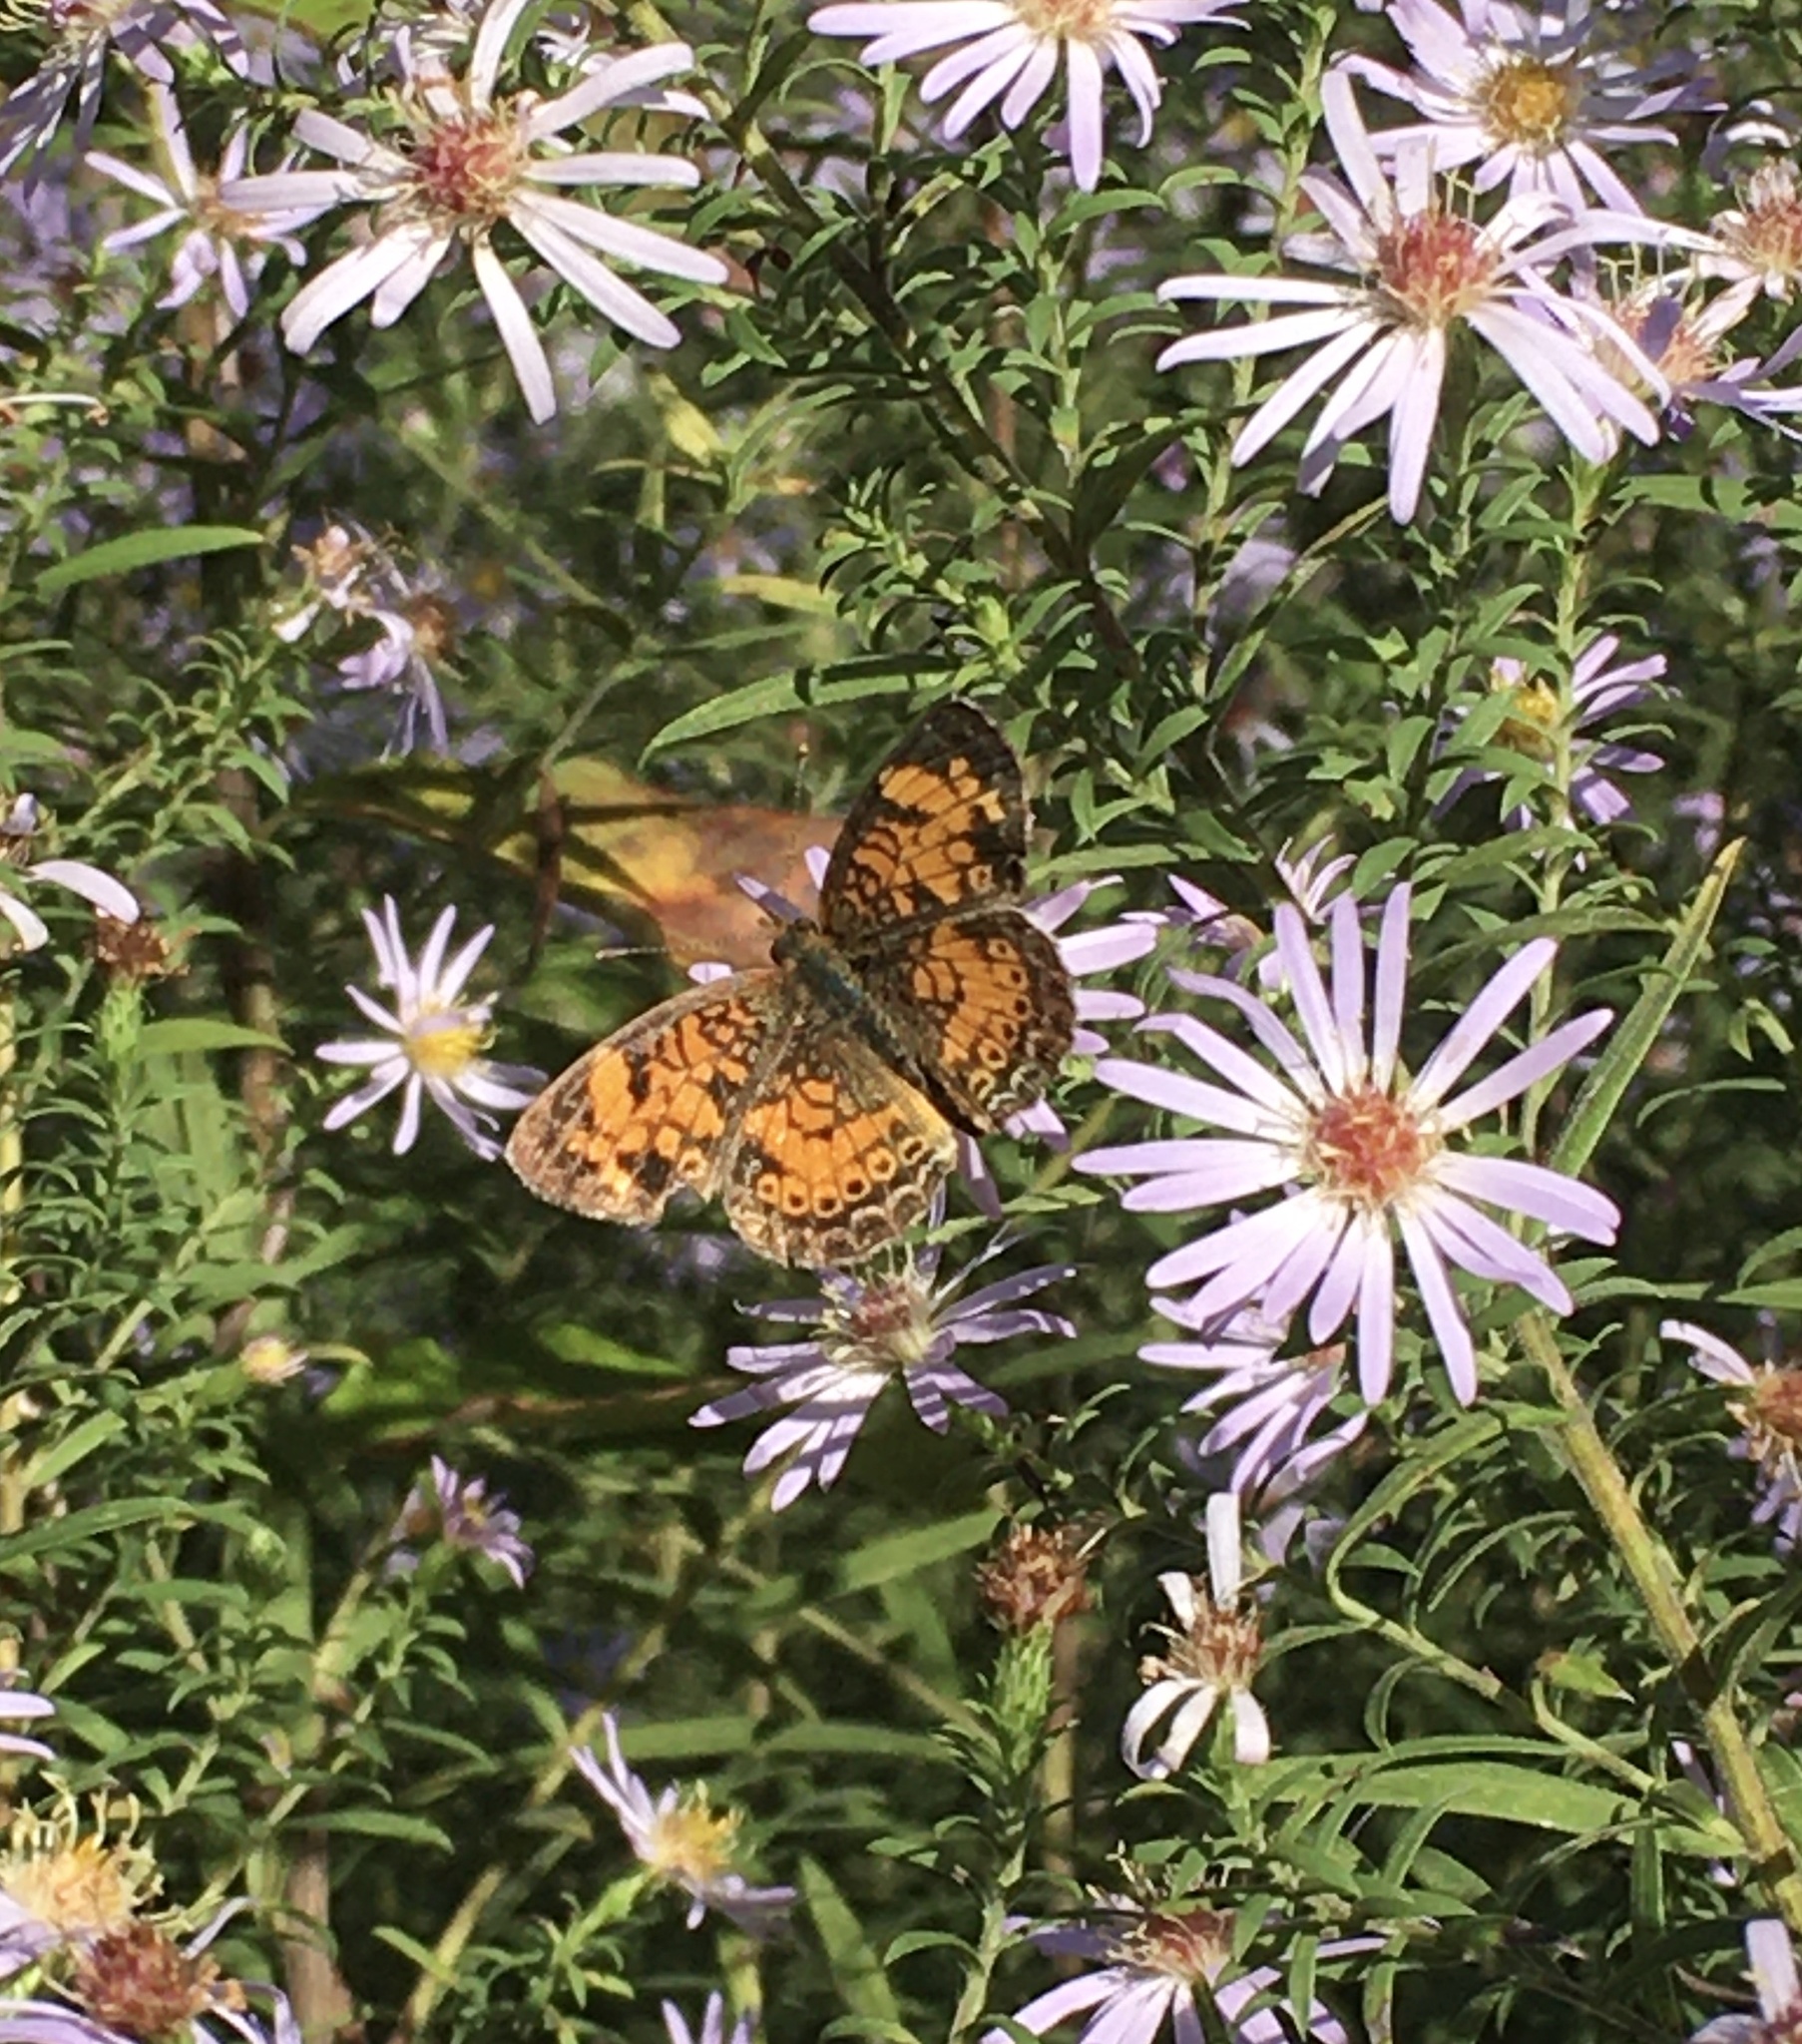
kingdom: Animalia
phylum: Arthropoda
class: Insecta
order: Lepidoptera
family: Nymphalidae
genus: Phyciodes
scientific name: Phyciodes tharos
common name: Pearl crescent
